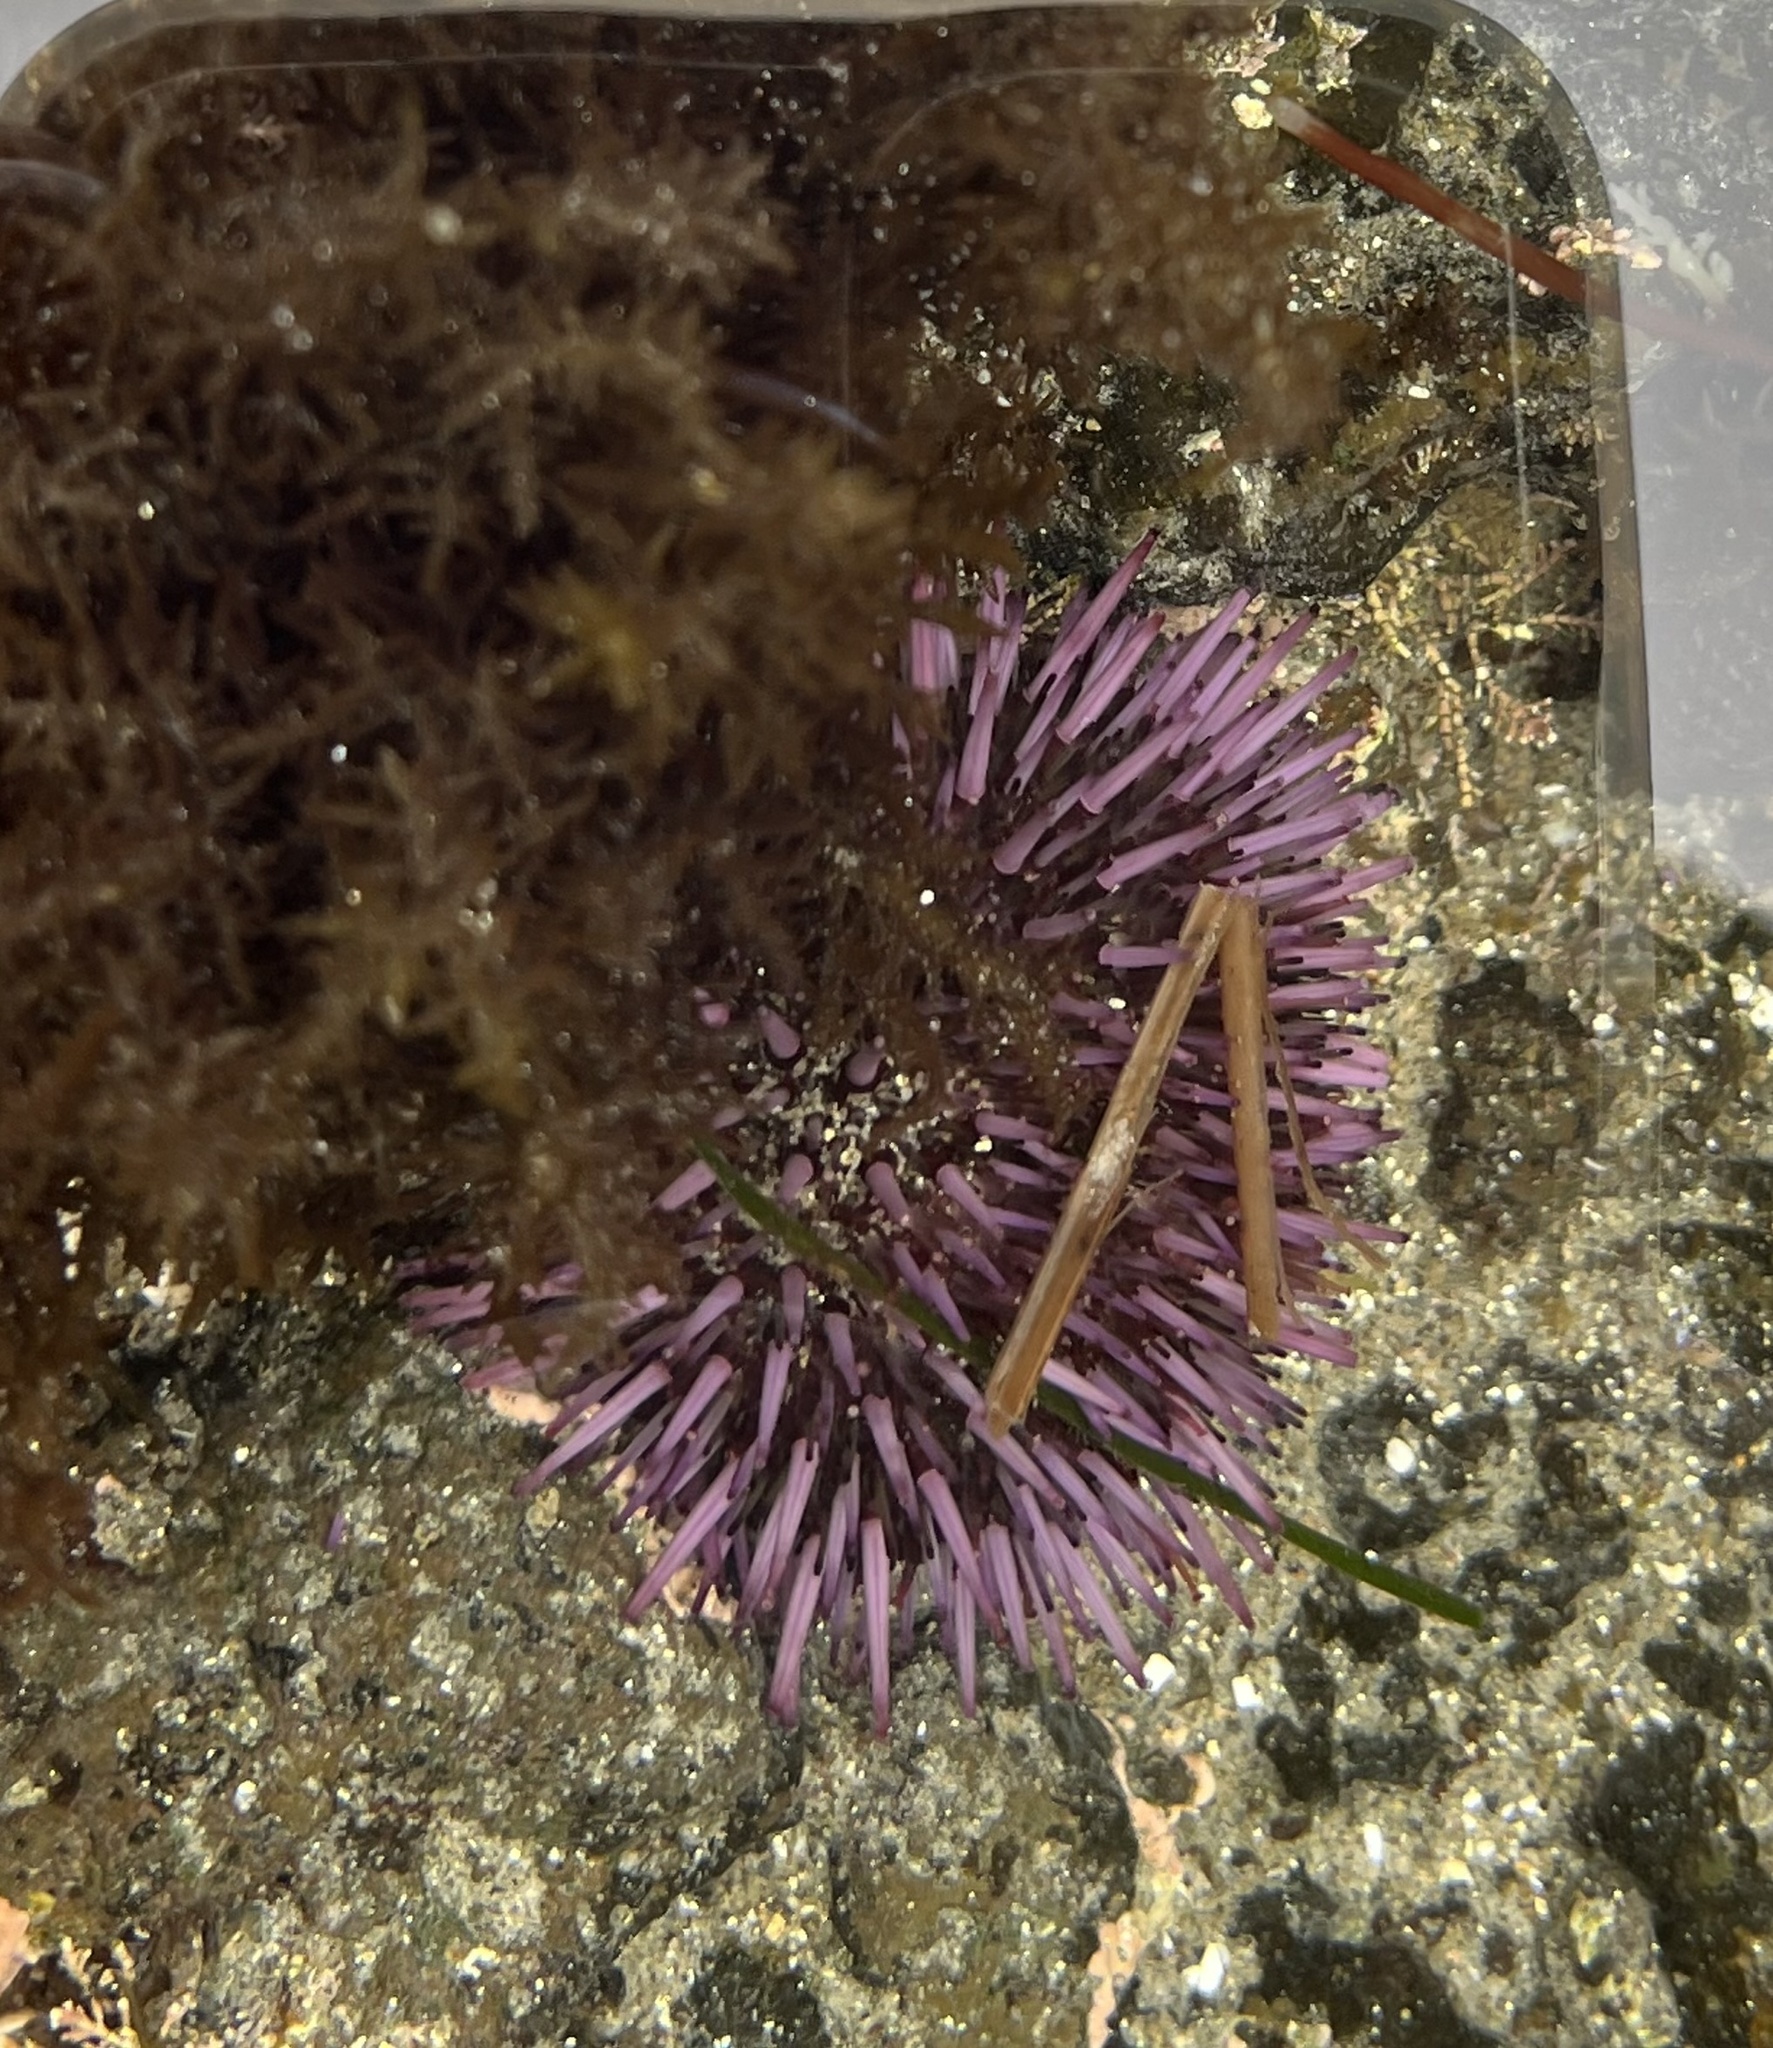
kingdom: Animalia
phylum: Echinodermata
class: Echinoidea
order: Camarodonta
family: Strongylocentrotidae
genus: Strongylocentrotus
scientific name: Strongylocentrotus purpuratus
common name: Purple sea urchin
